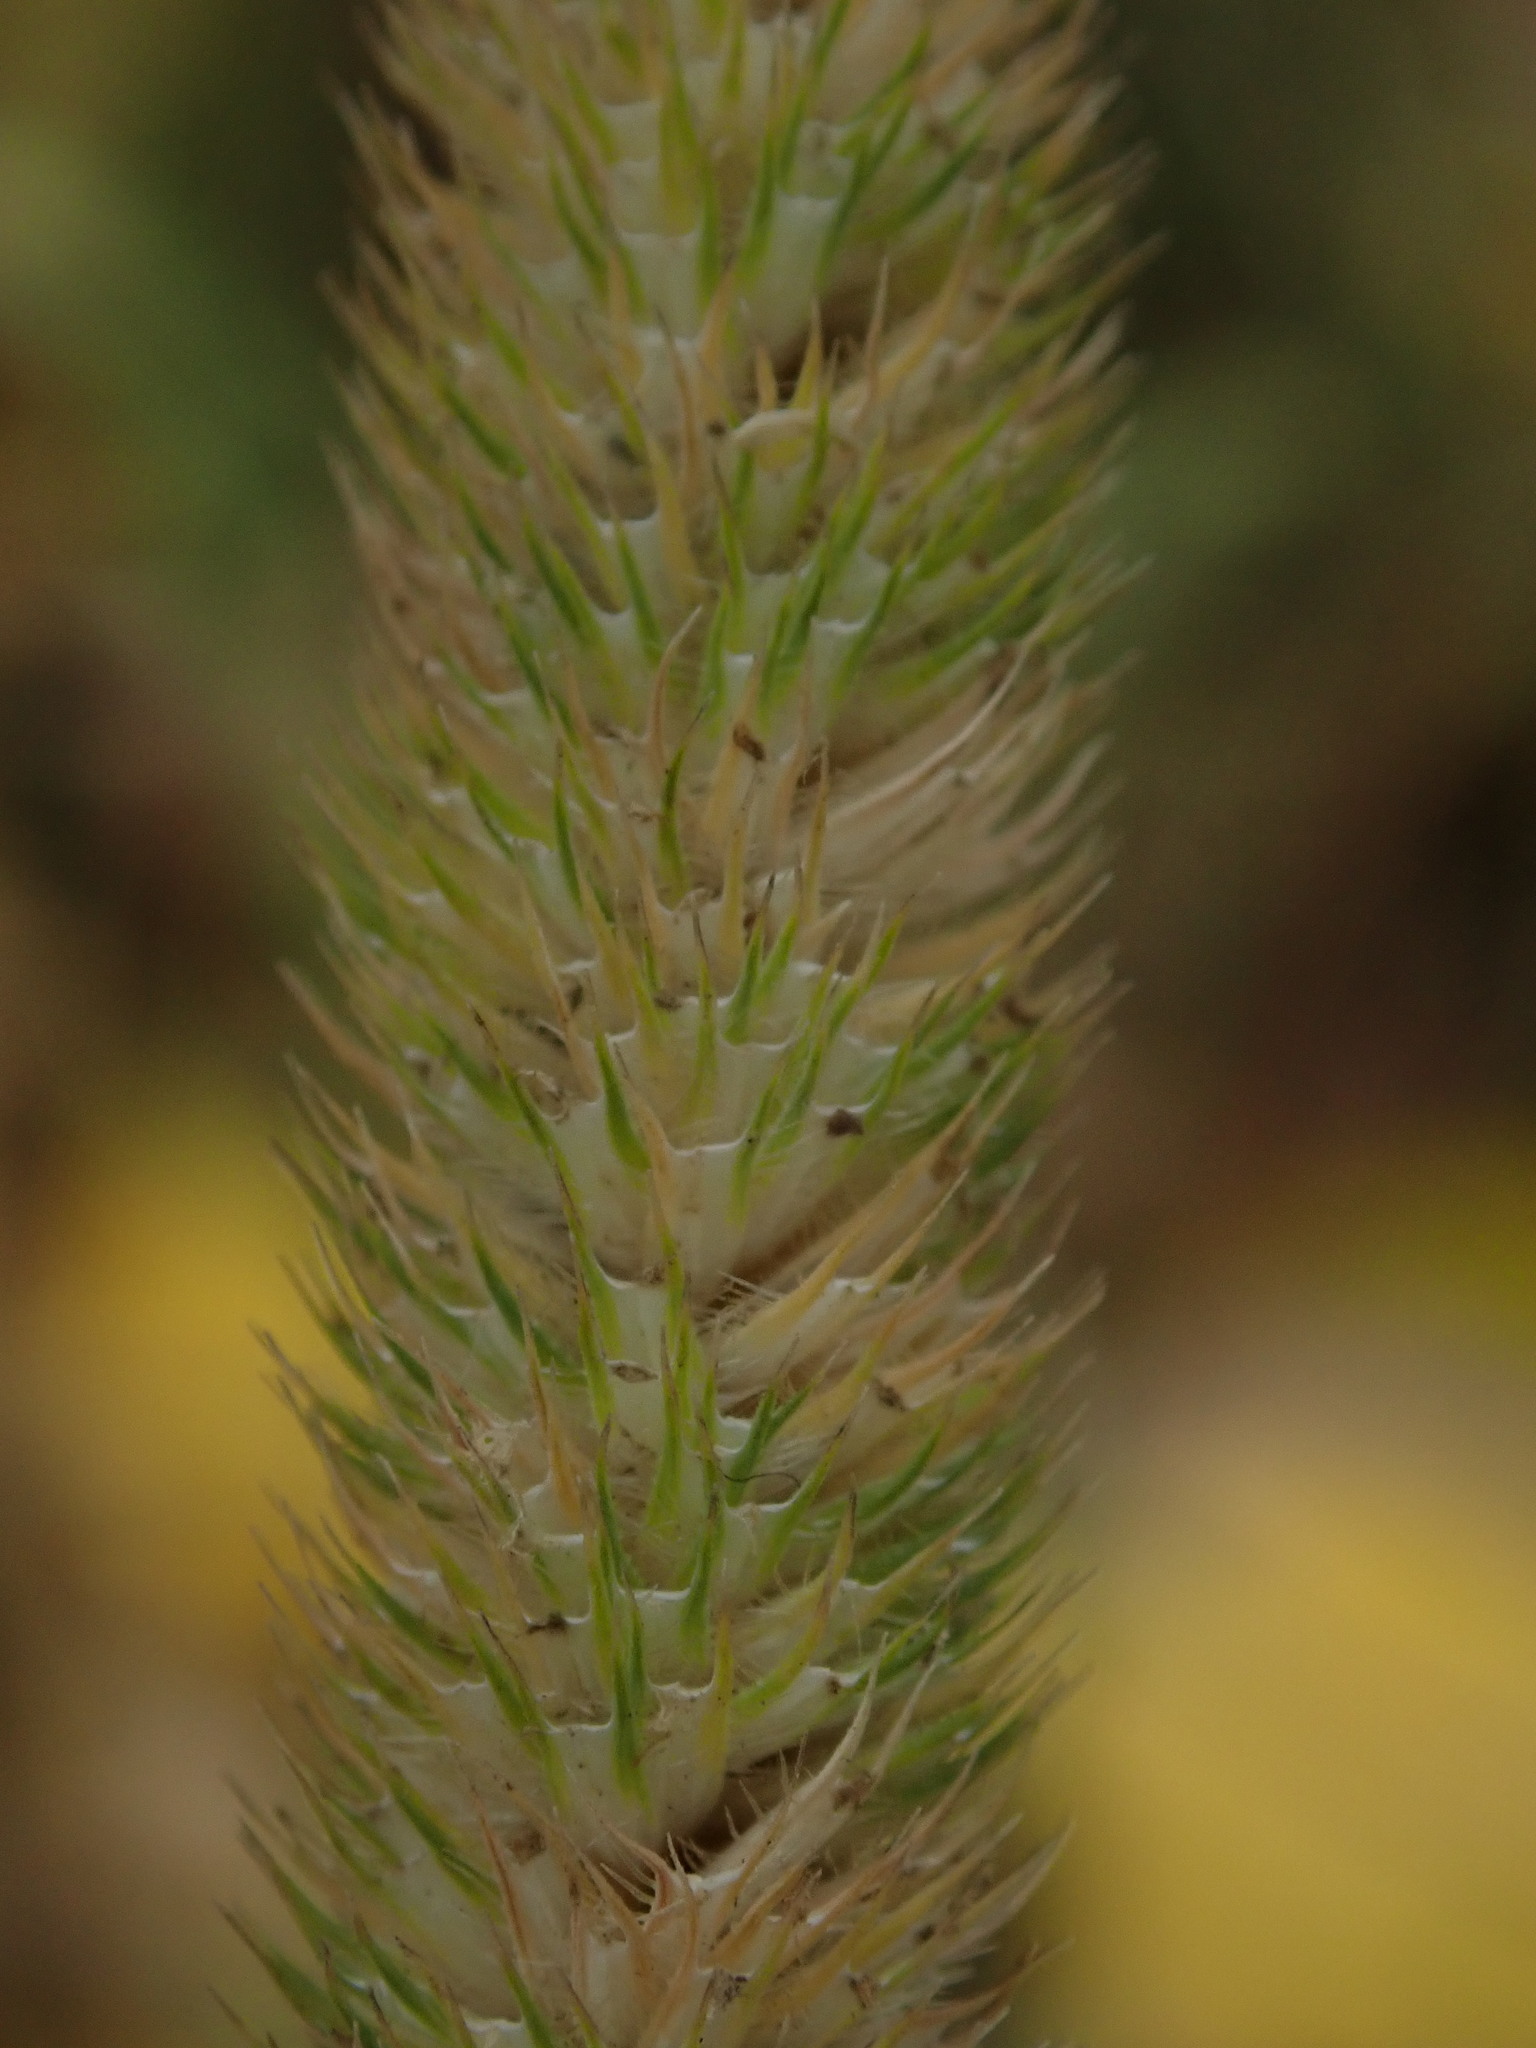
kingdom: Plantae
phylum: Tracheophyta
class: Liliopsida
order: Poales
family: Poaceae
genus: Phleum
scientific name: Phleum pratense
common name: Timothy grass
